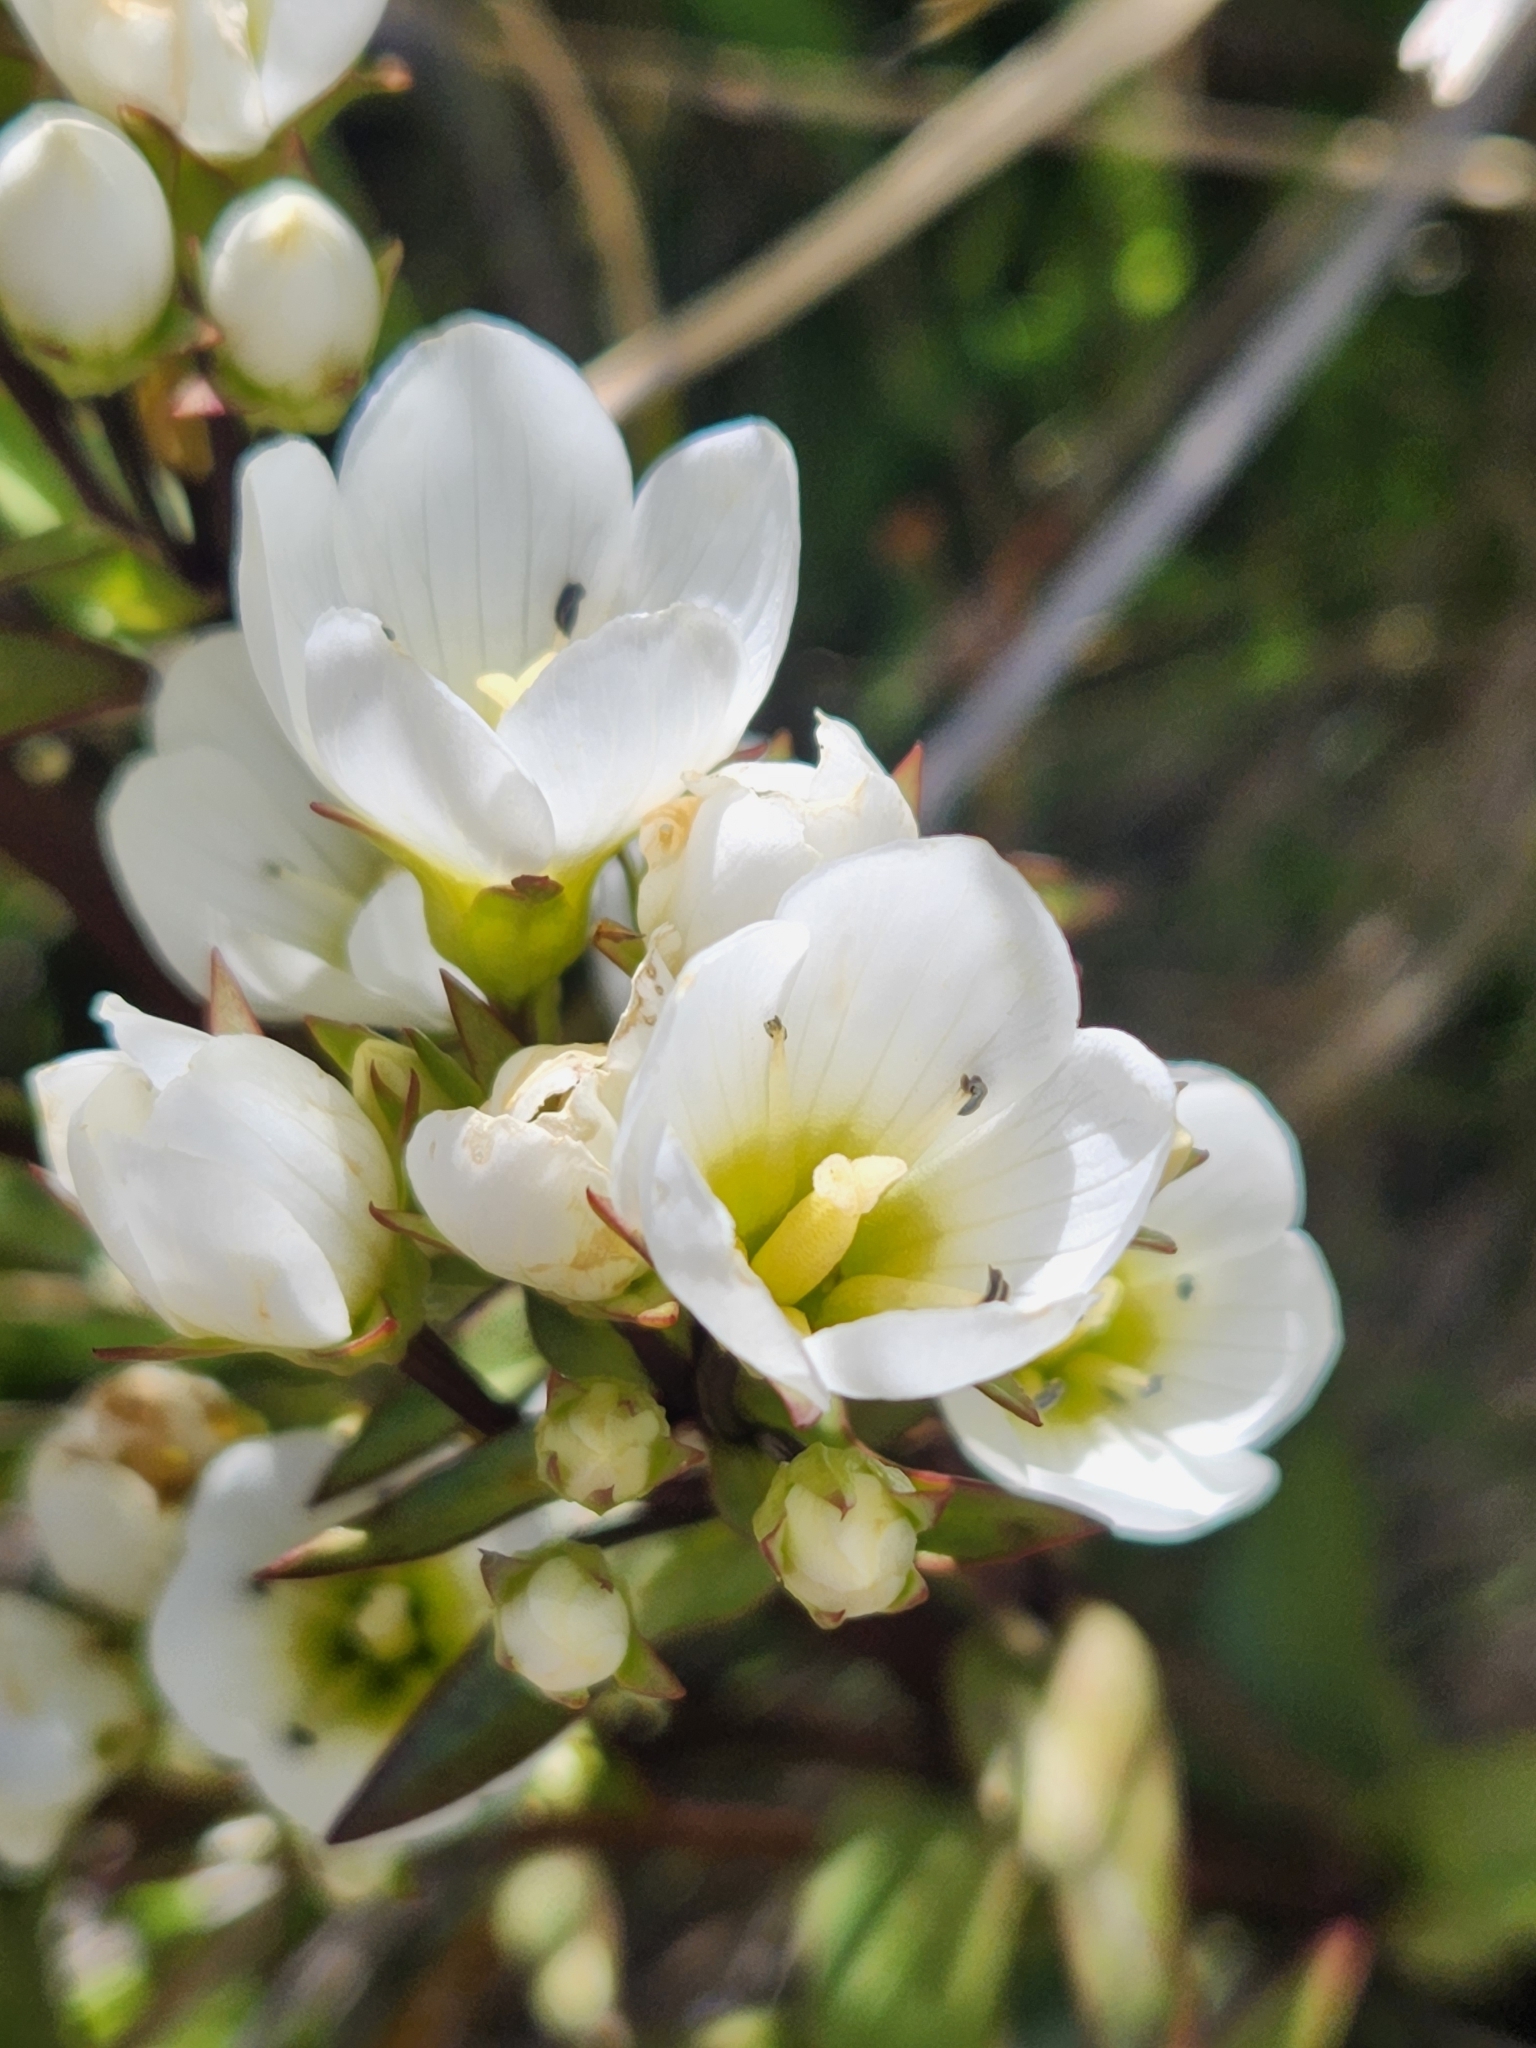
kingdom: Plantae
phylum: Tracheophyta
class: Magnoliopsida
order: Gentianales
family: Gentianaceae
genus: Gentianella
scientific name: Gentianella corymbifera
